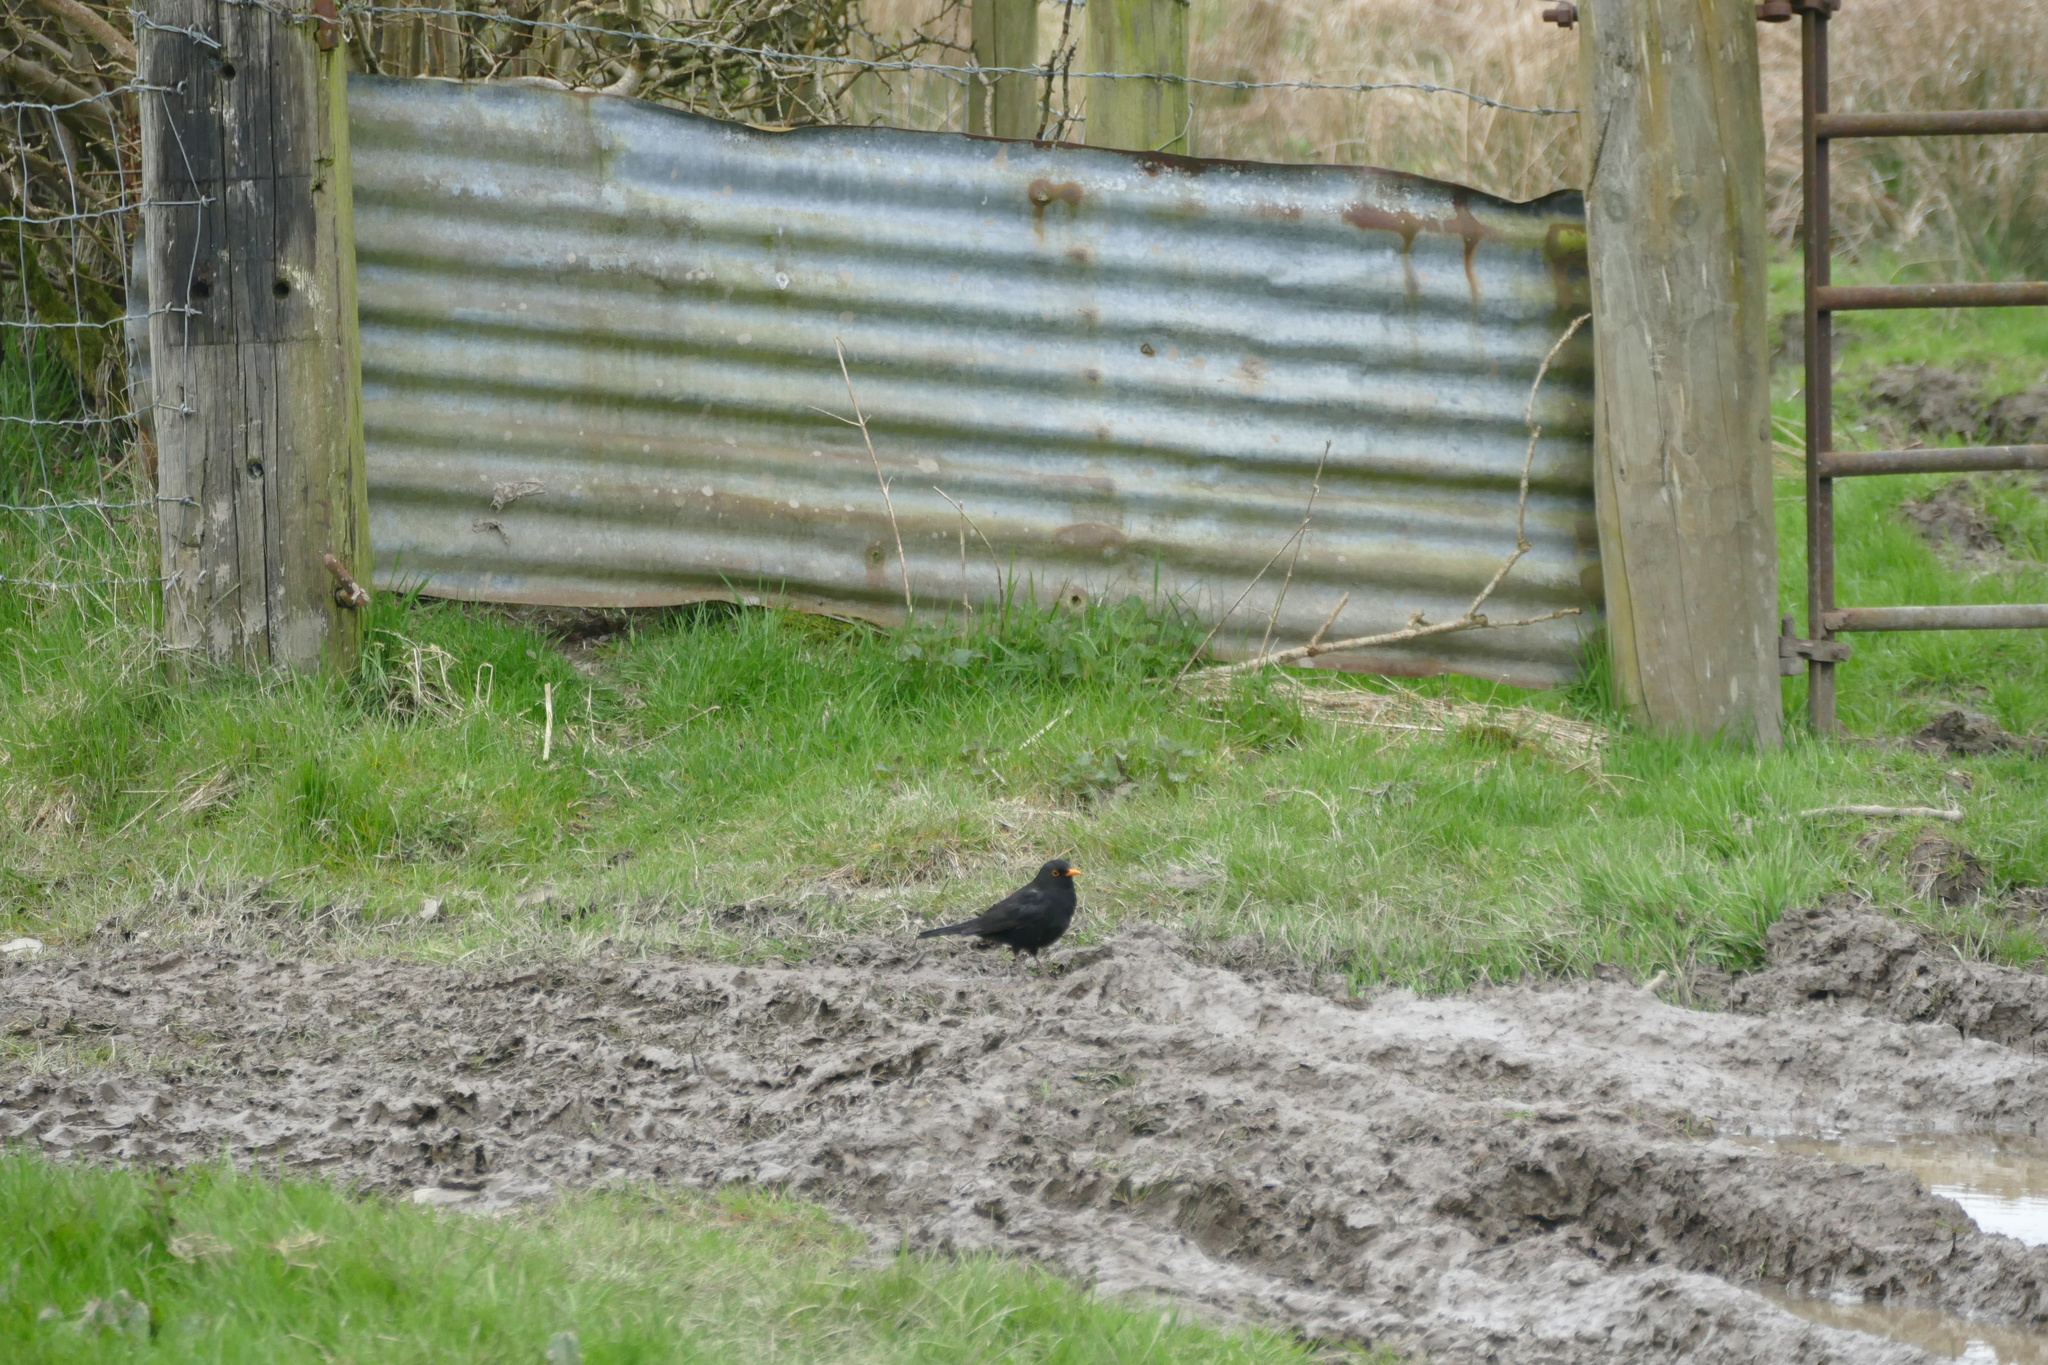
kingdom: Animalia
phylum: Chordata
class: Aves
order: Passeriformes
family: Turdidae
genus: Turdus
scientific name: Turdus merula
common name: Common blackbird
